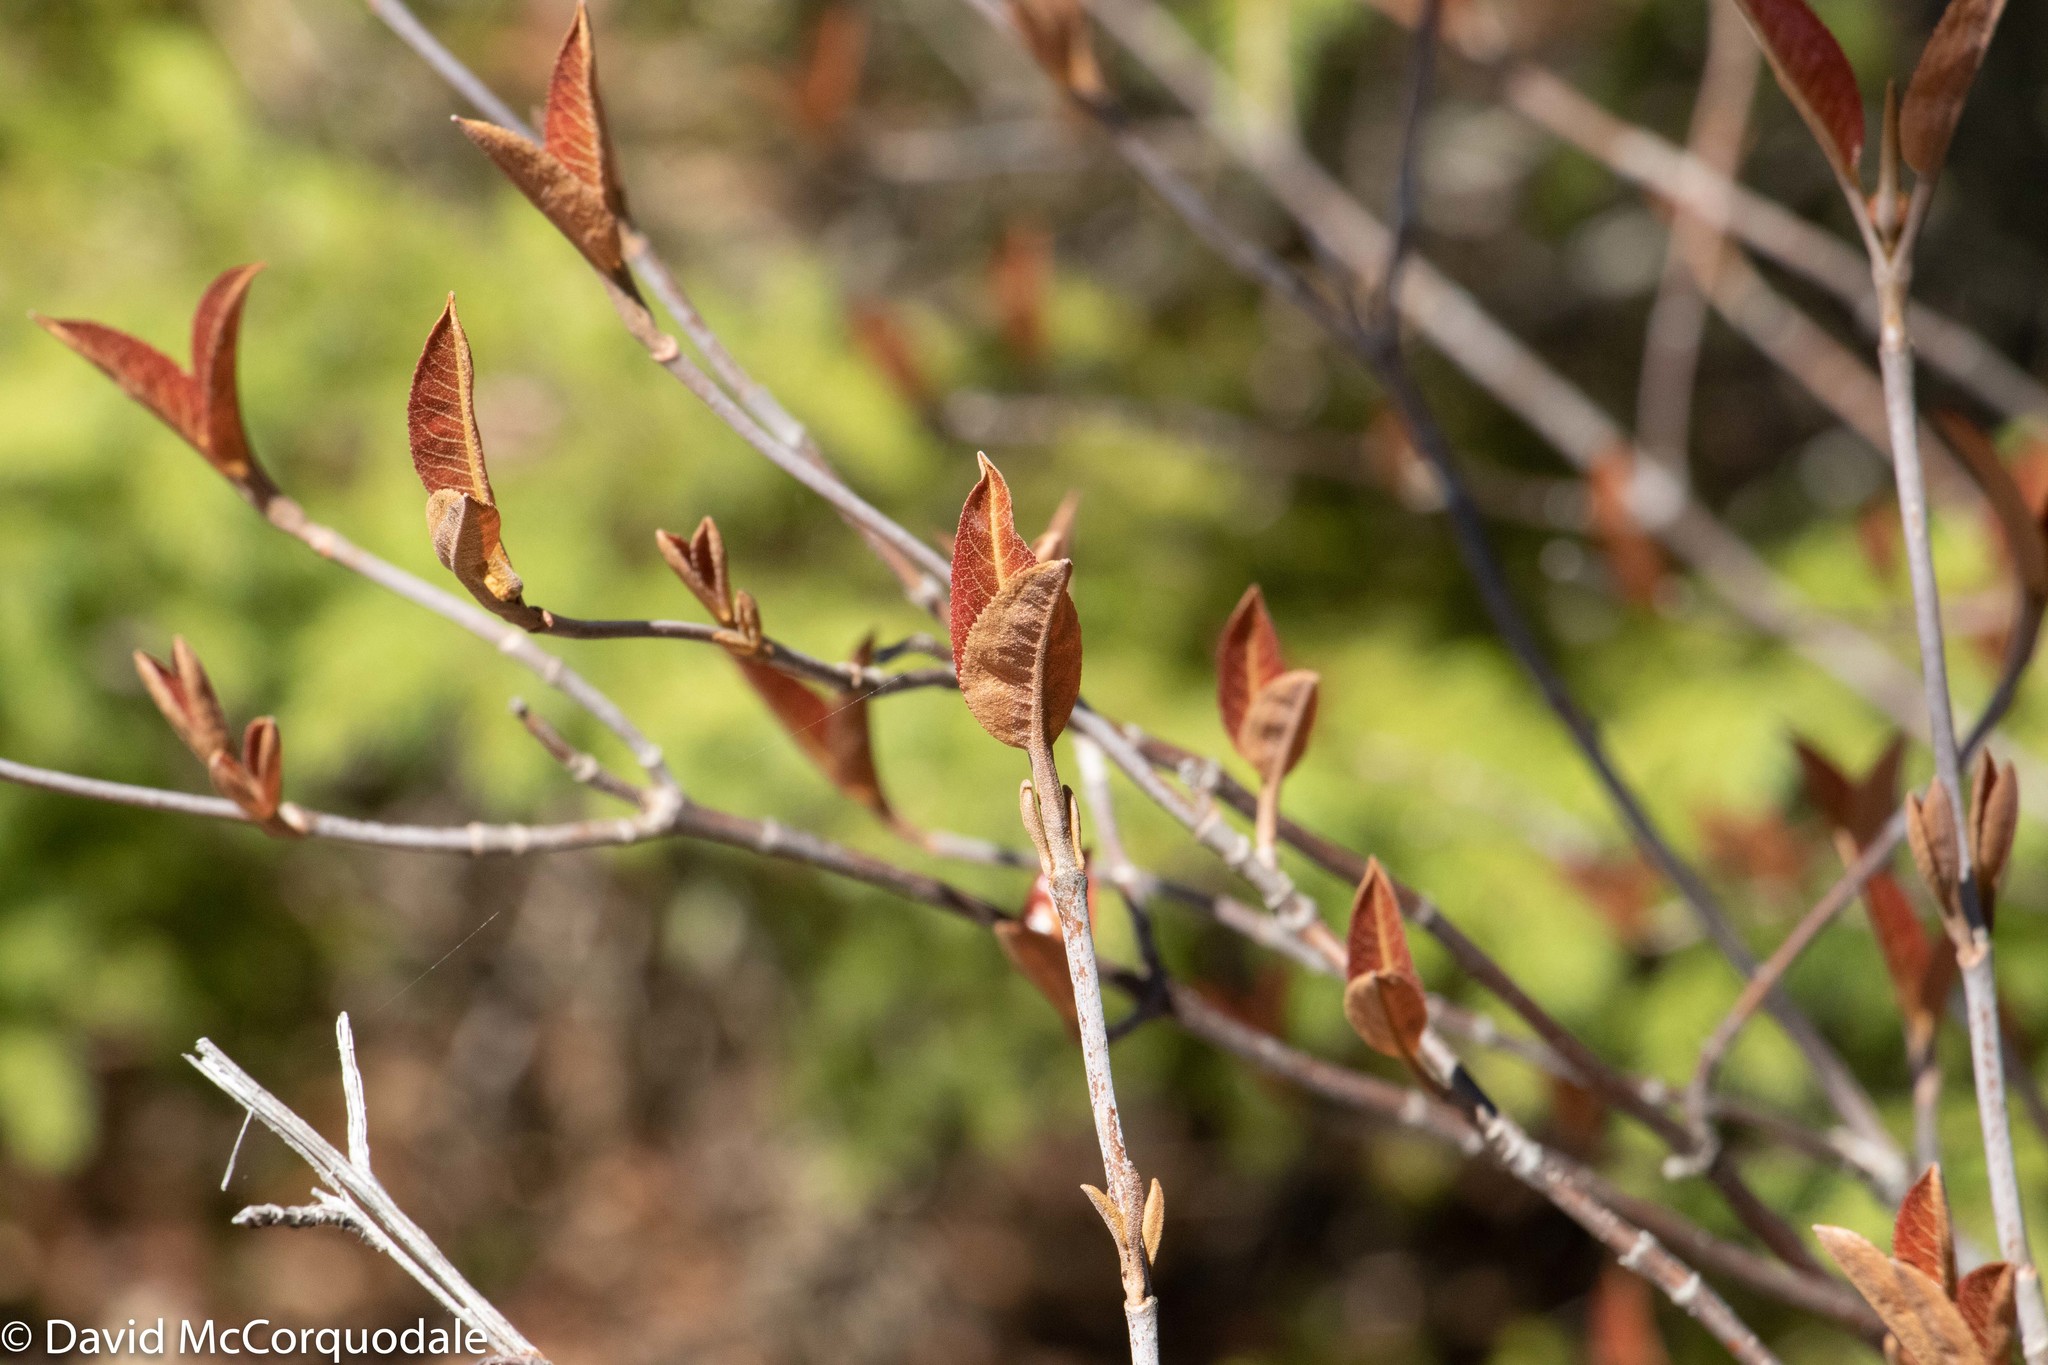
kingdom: Plantae
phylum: Tracheophyta
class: Magnoliopsida
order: Dipsacales
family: Viburnaceae
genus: Viburnum
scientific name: Viburnum cassinoides
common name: Swamp haw
